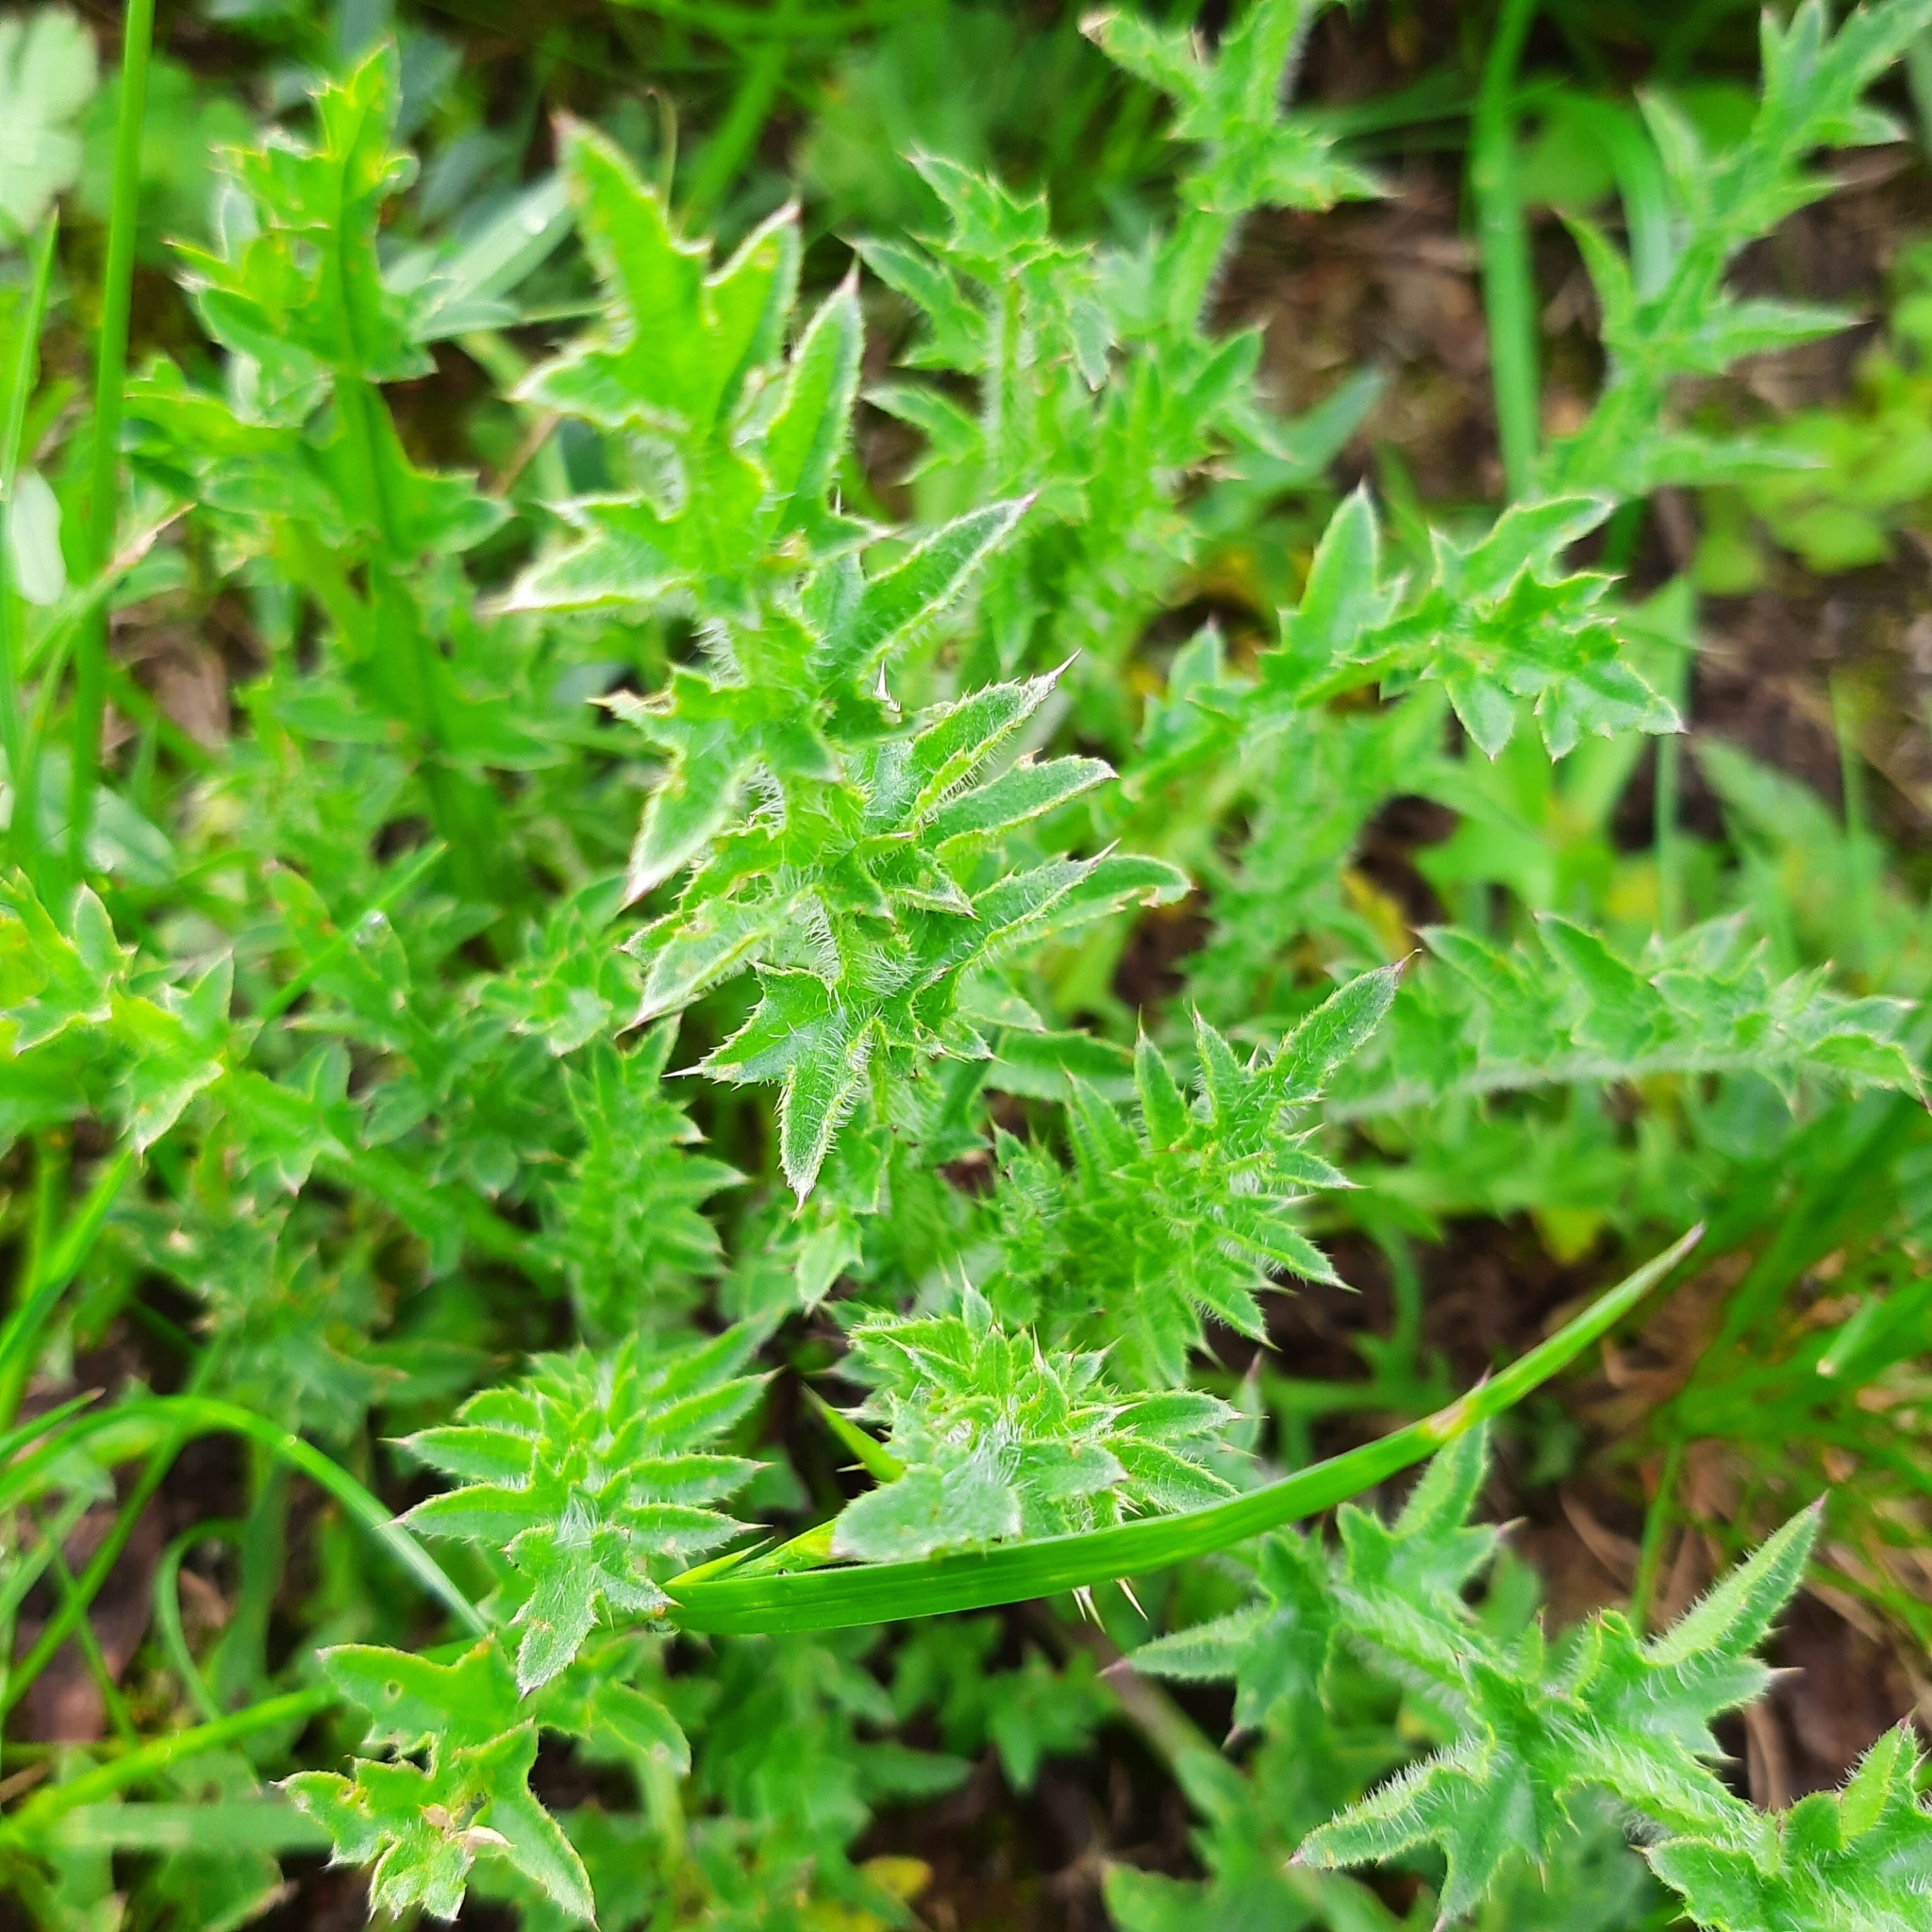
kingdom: Plantae
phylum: Tracheophyta
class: Magnoliopsida
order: Asterales
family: Asteraceae
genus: Carduus
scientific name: Carduus acanthoides
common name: Plumeless thistle
